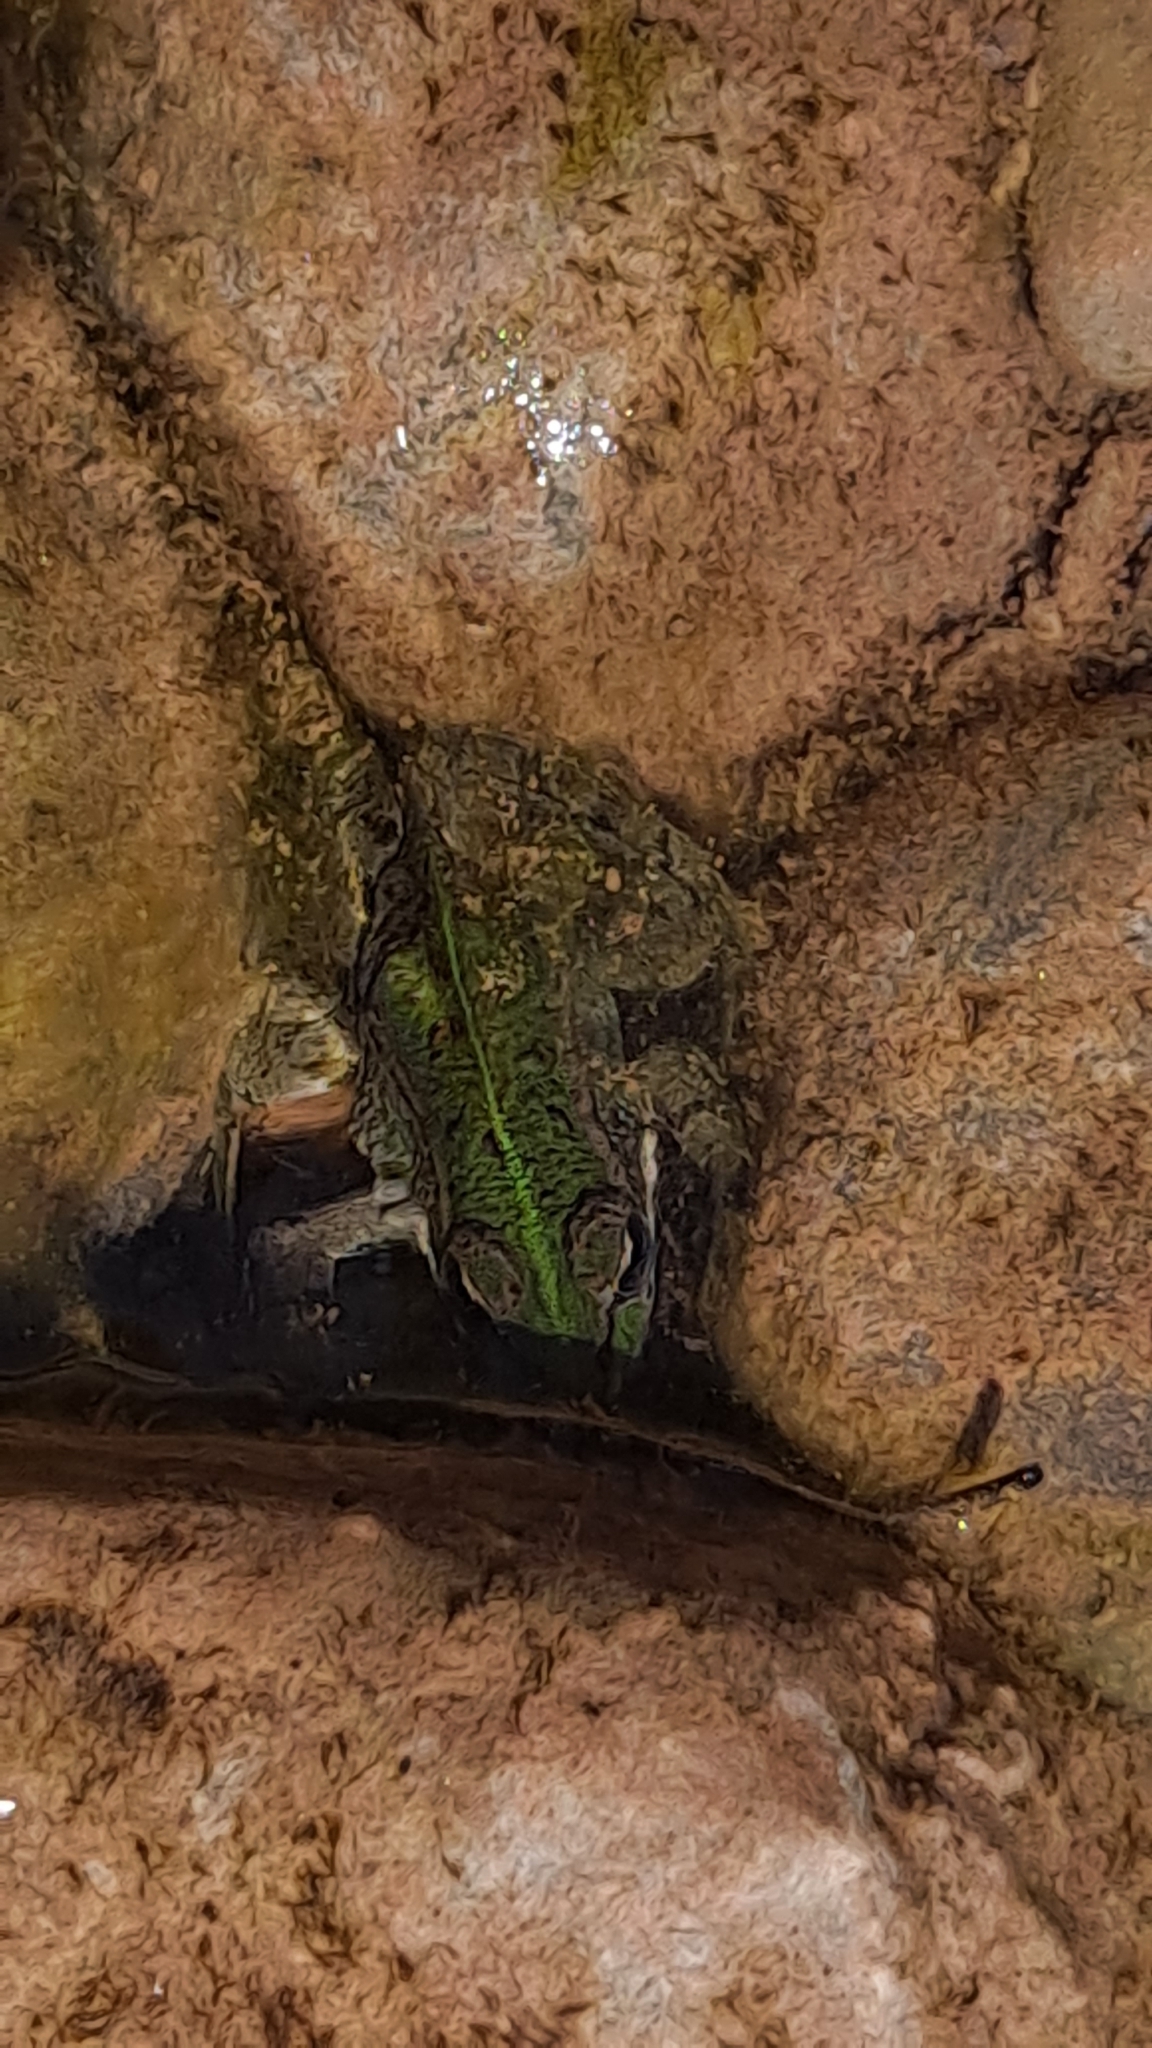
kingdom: Animalia
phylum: Chordata
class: Amphibia
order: Anura
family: Ranidae
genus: Pelophylax
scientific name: Pelophylax perezi
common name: Perez's frog
